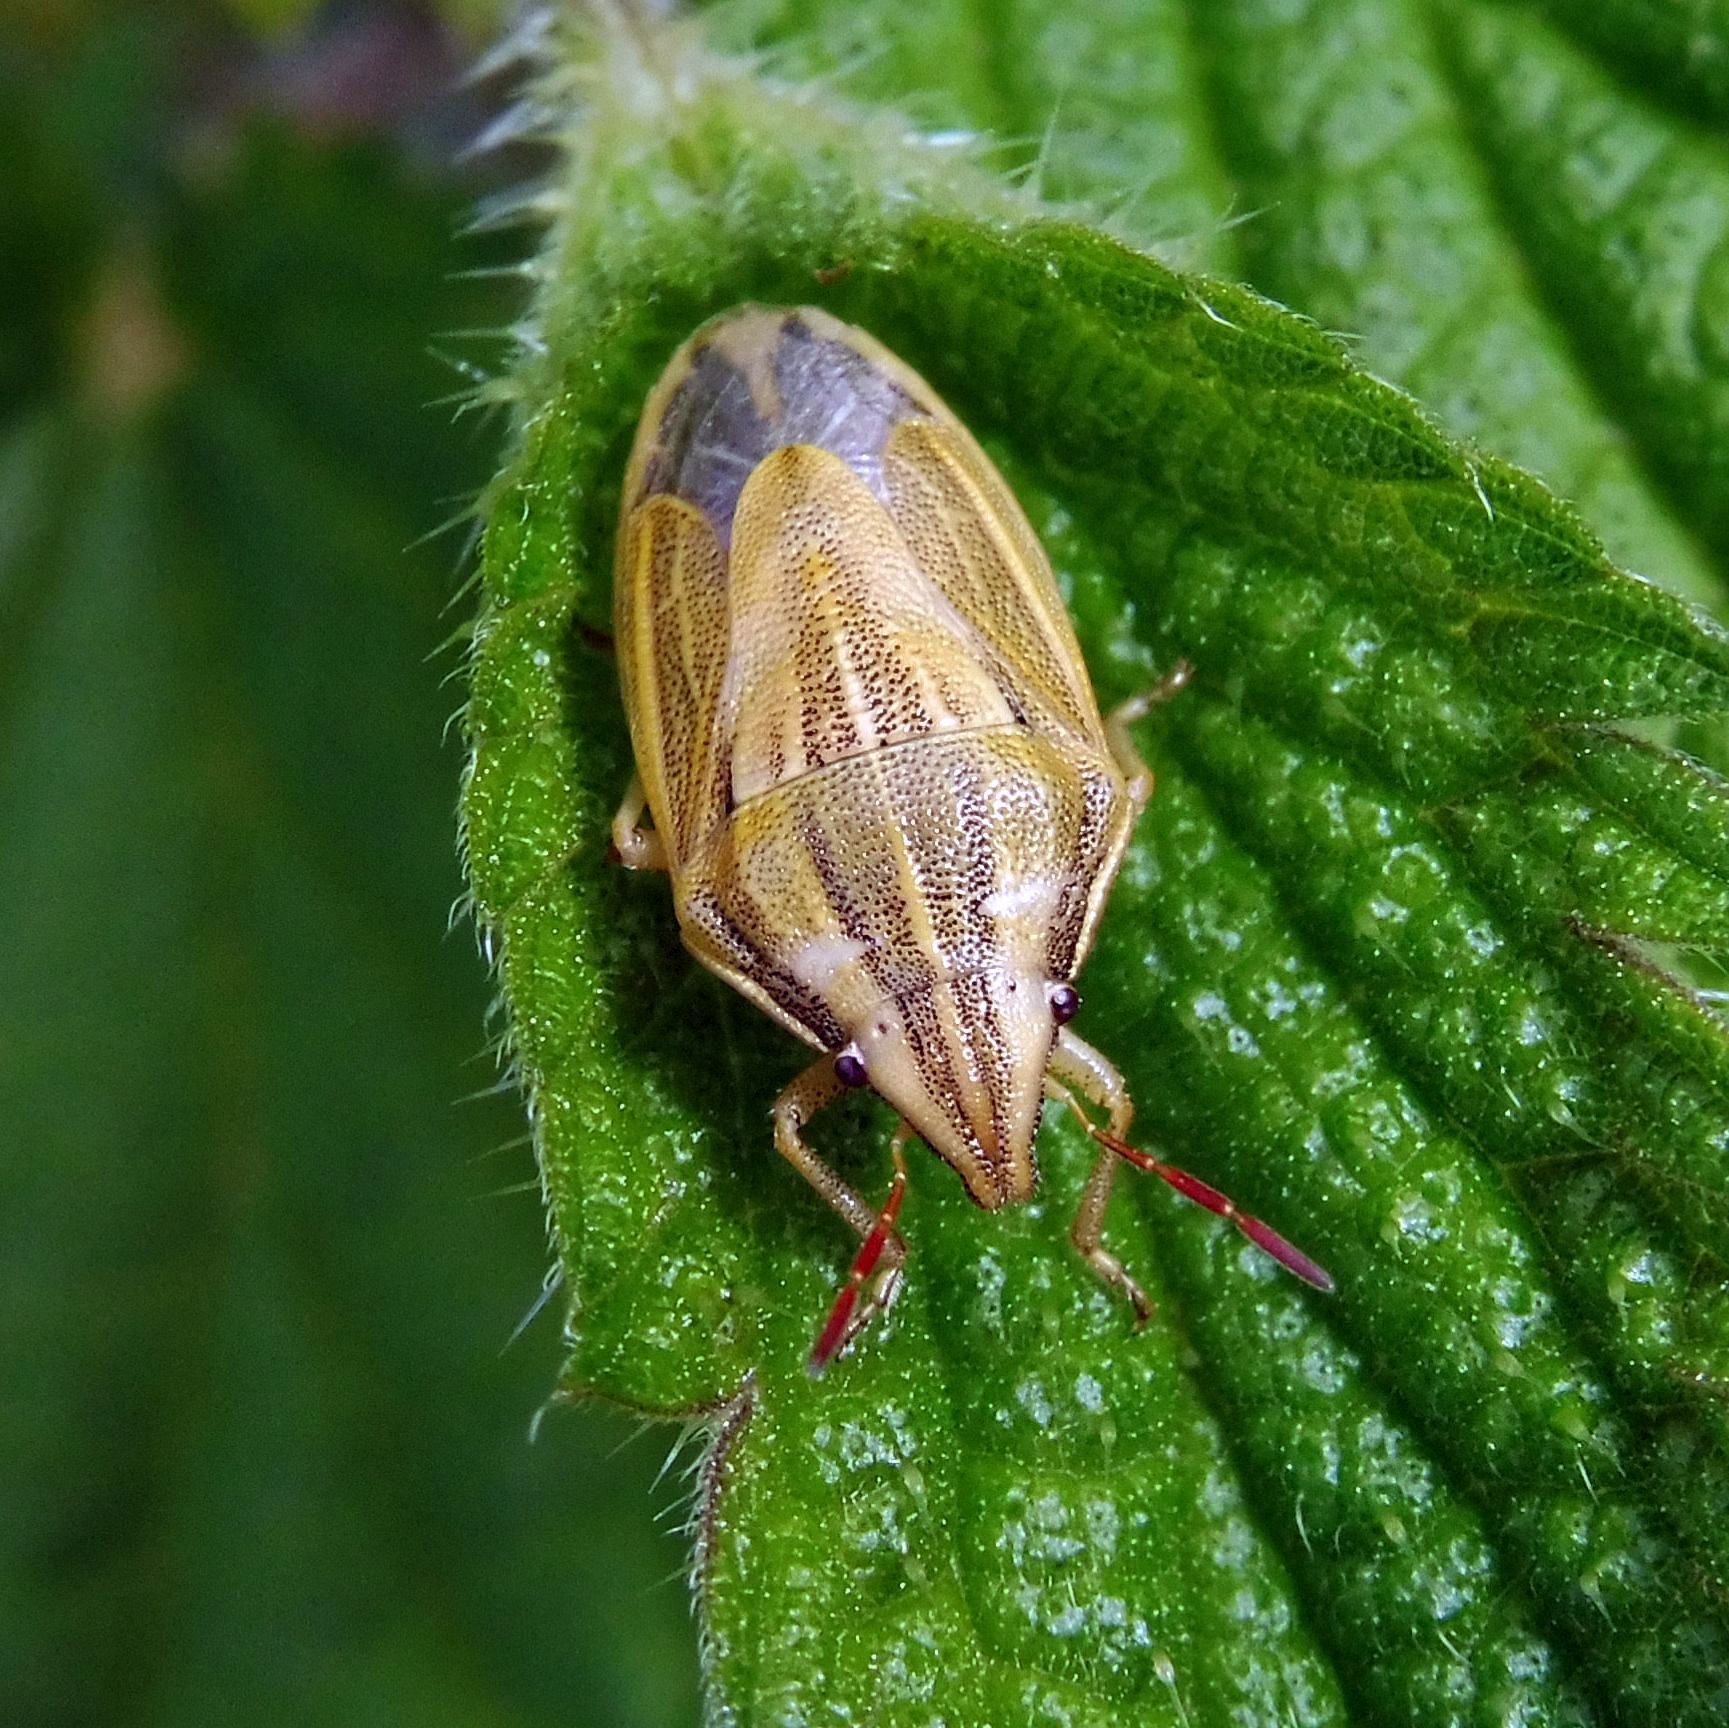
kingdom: Animalia
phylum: Arthropoda
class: Insecta
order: Hemiptera
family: Pentatomidae
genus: Aelia
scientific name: Aelia acuminata
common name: Bishop's mitre
